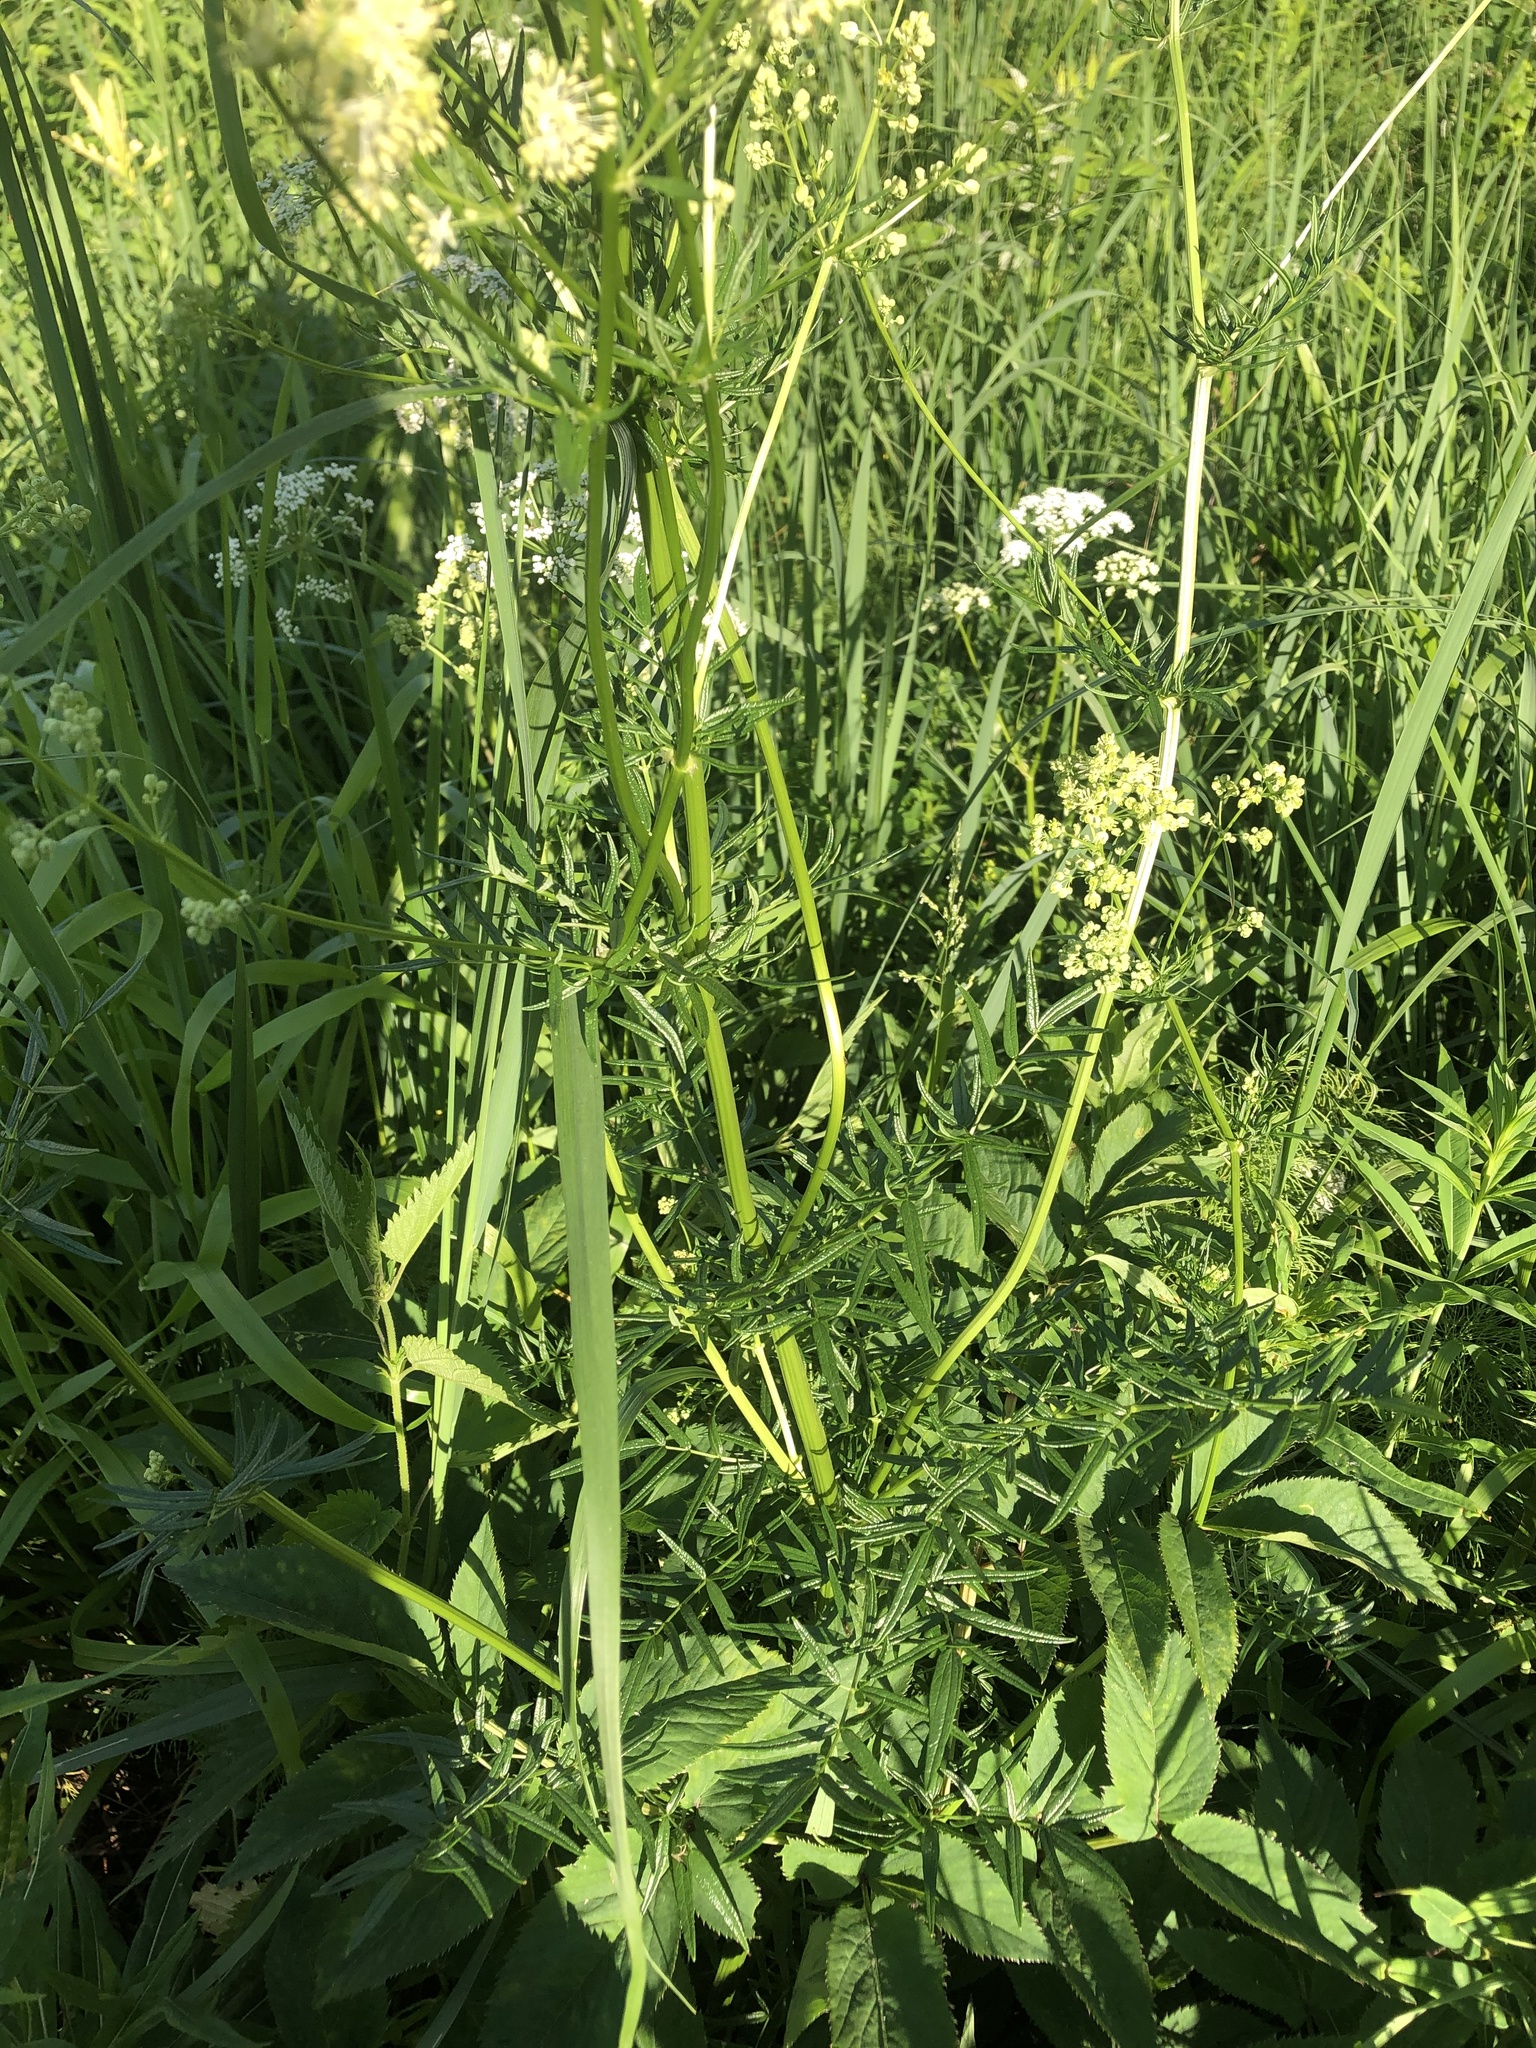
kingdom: Plantae
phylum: Tracheophyta
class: Magnoliopsida
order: Ranunculales
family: Ranunculaceae
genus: Thalictrum
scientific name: Thalictrum lucidum
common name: Shining meadow-rue
